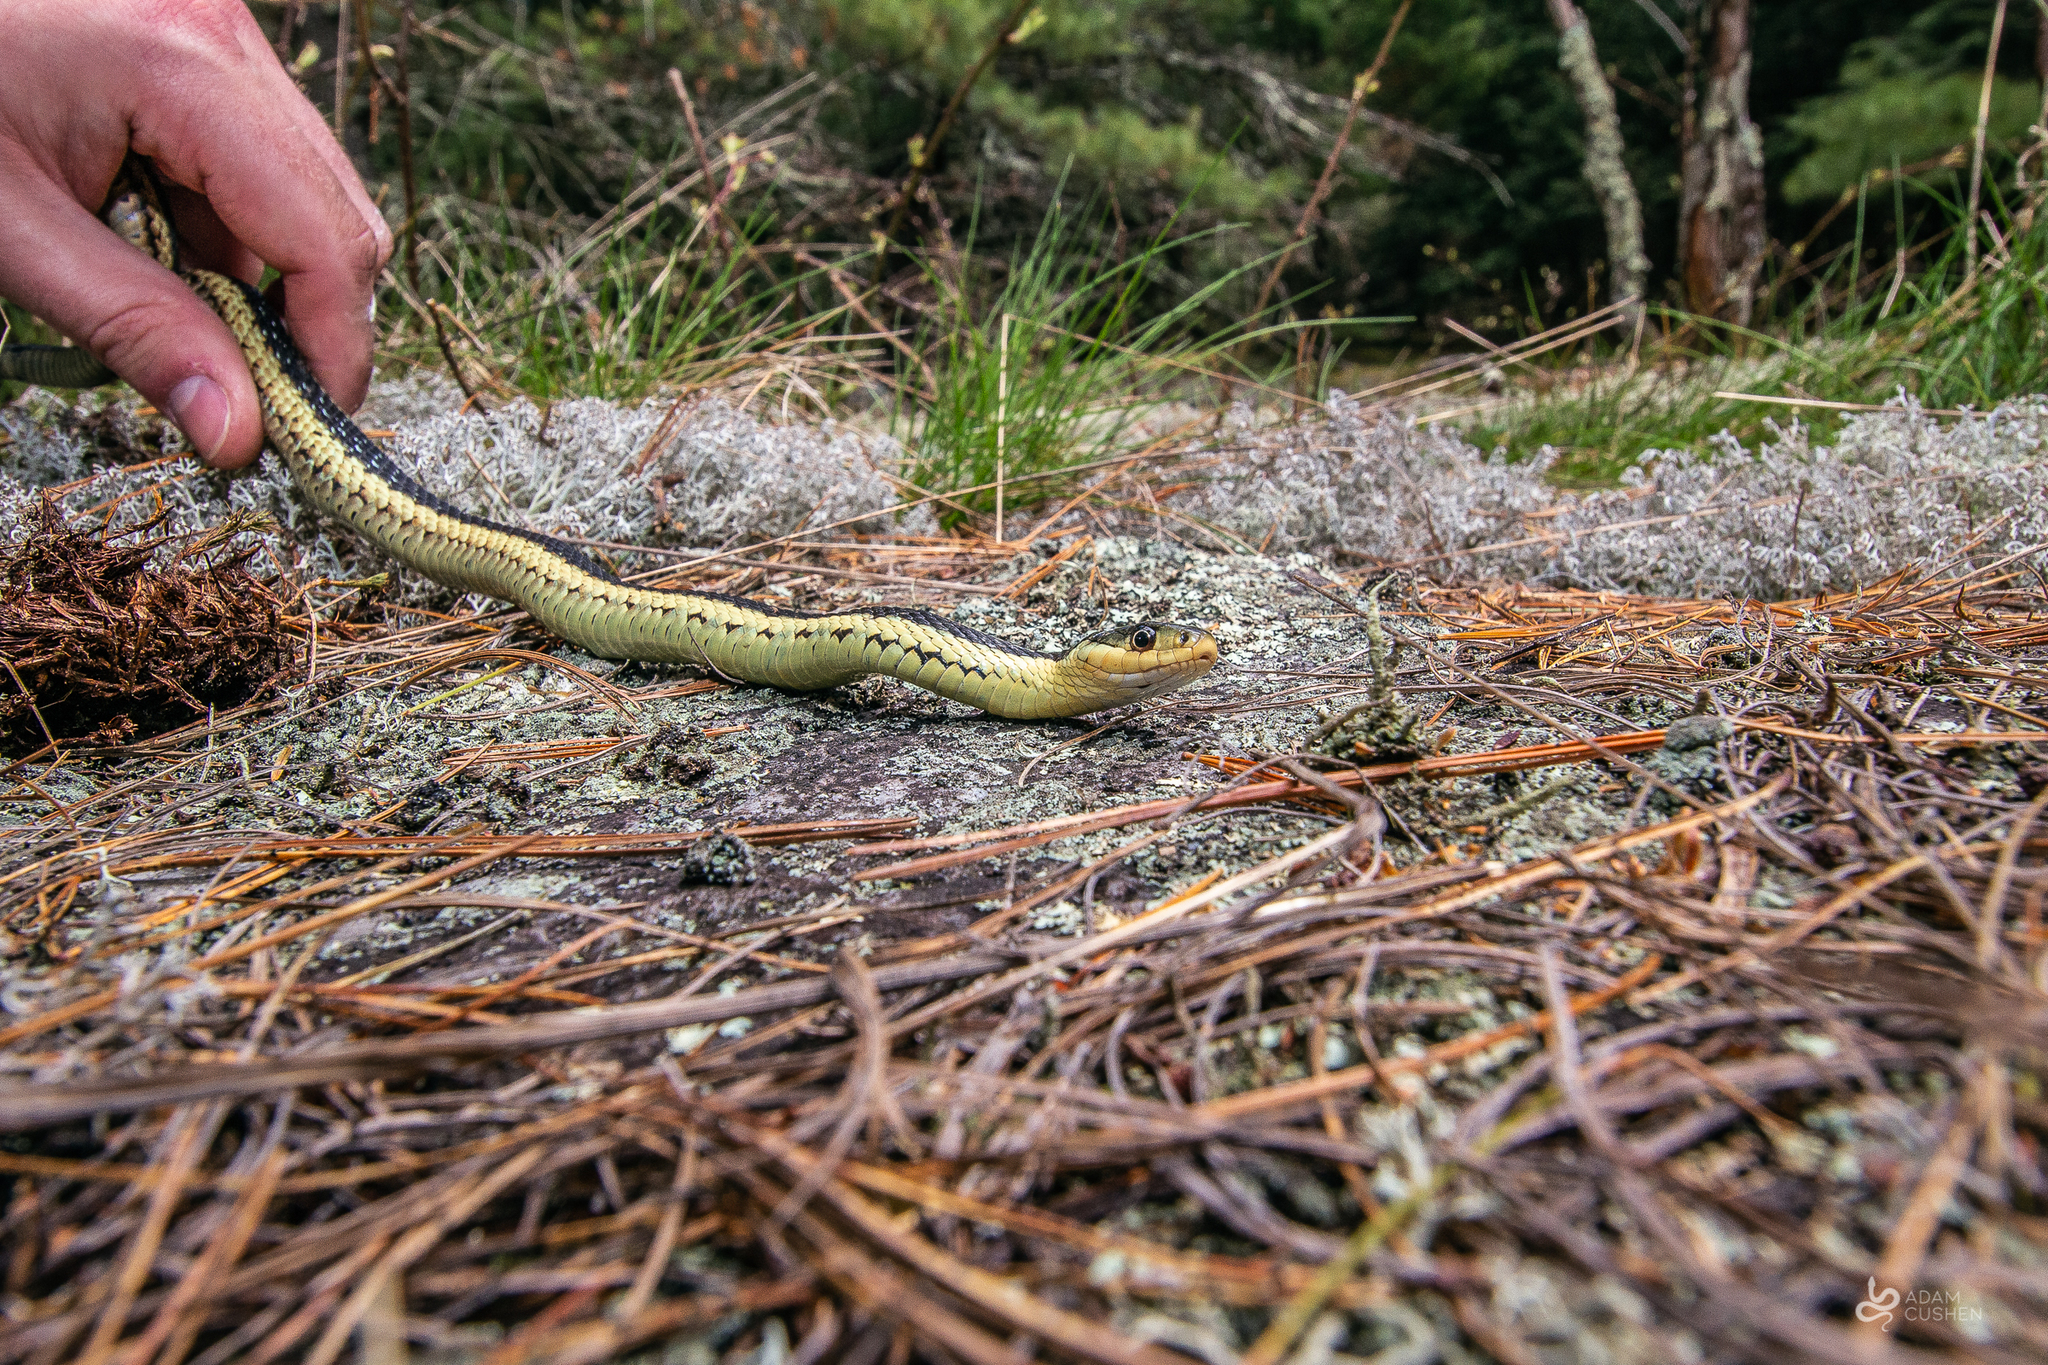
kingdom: Animalia
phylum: Chordata
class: Squamata
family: Colubridae
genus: Thamnophis
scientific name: Thamnophis sirtalis
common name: Common garter snake
